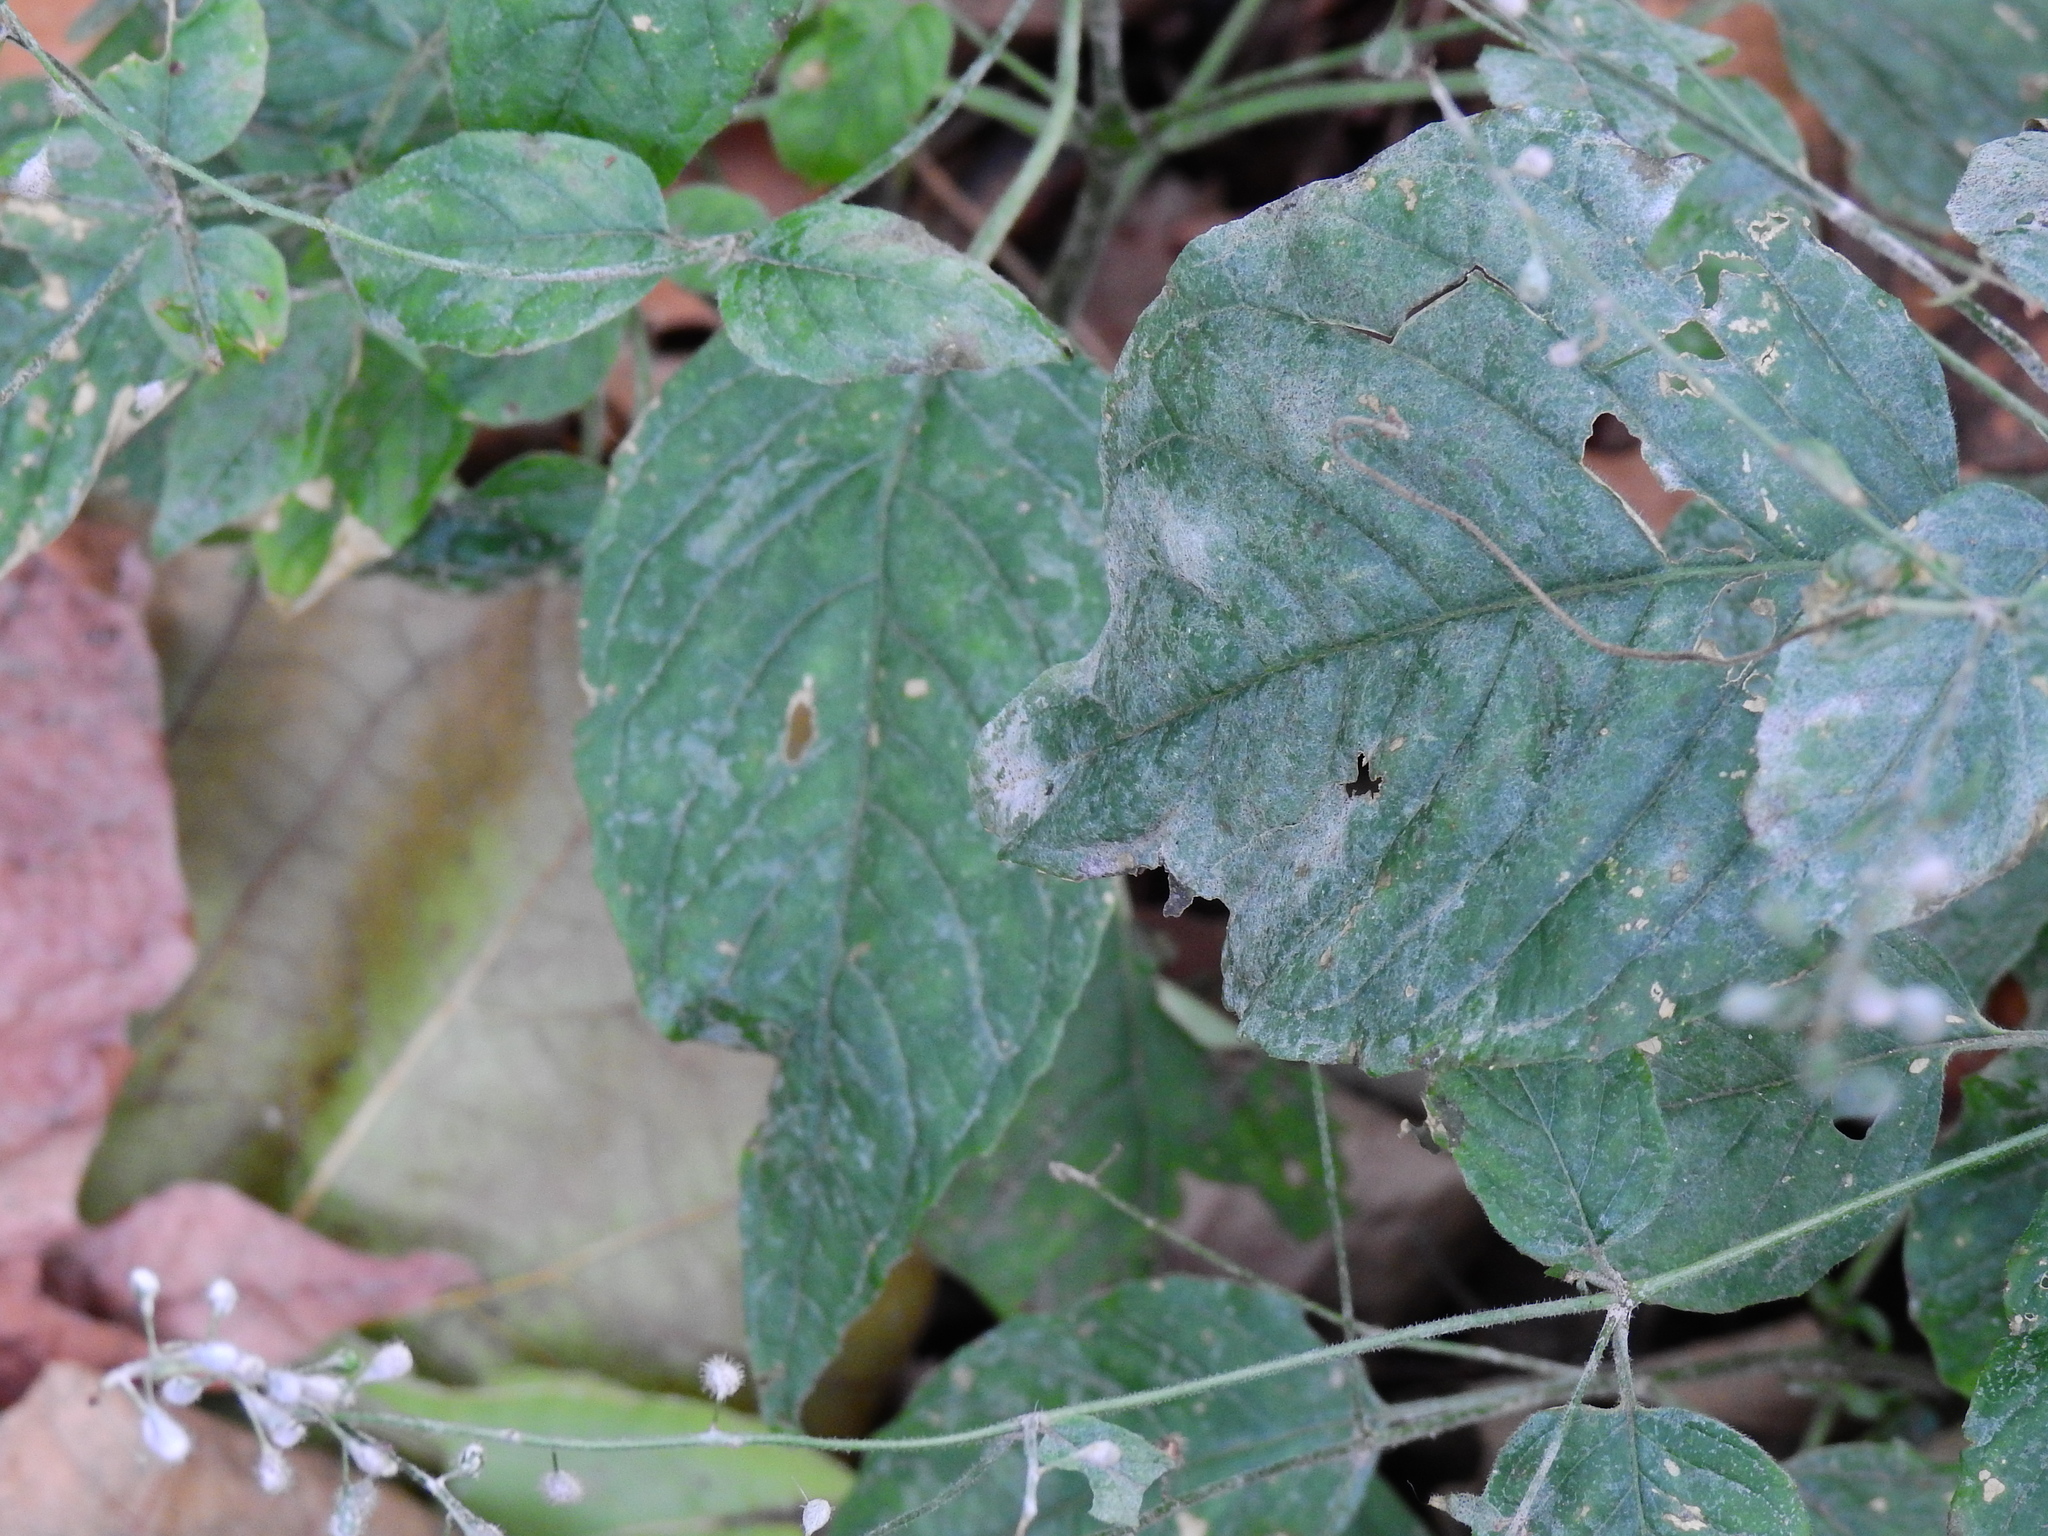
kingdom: Fungi
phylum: Ascomycota
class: Leotiomycetes
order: Helotiales
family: Erysiphaceae
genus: Erysiphe
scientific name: Erysiphe circaeae
